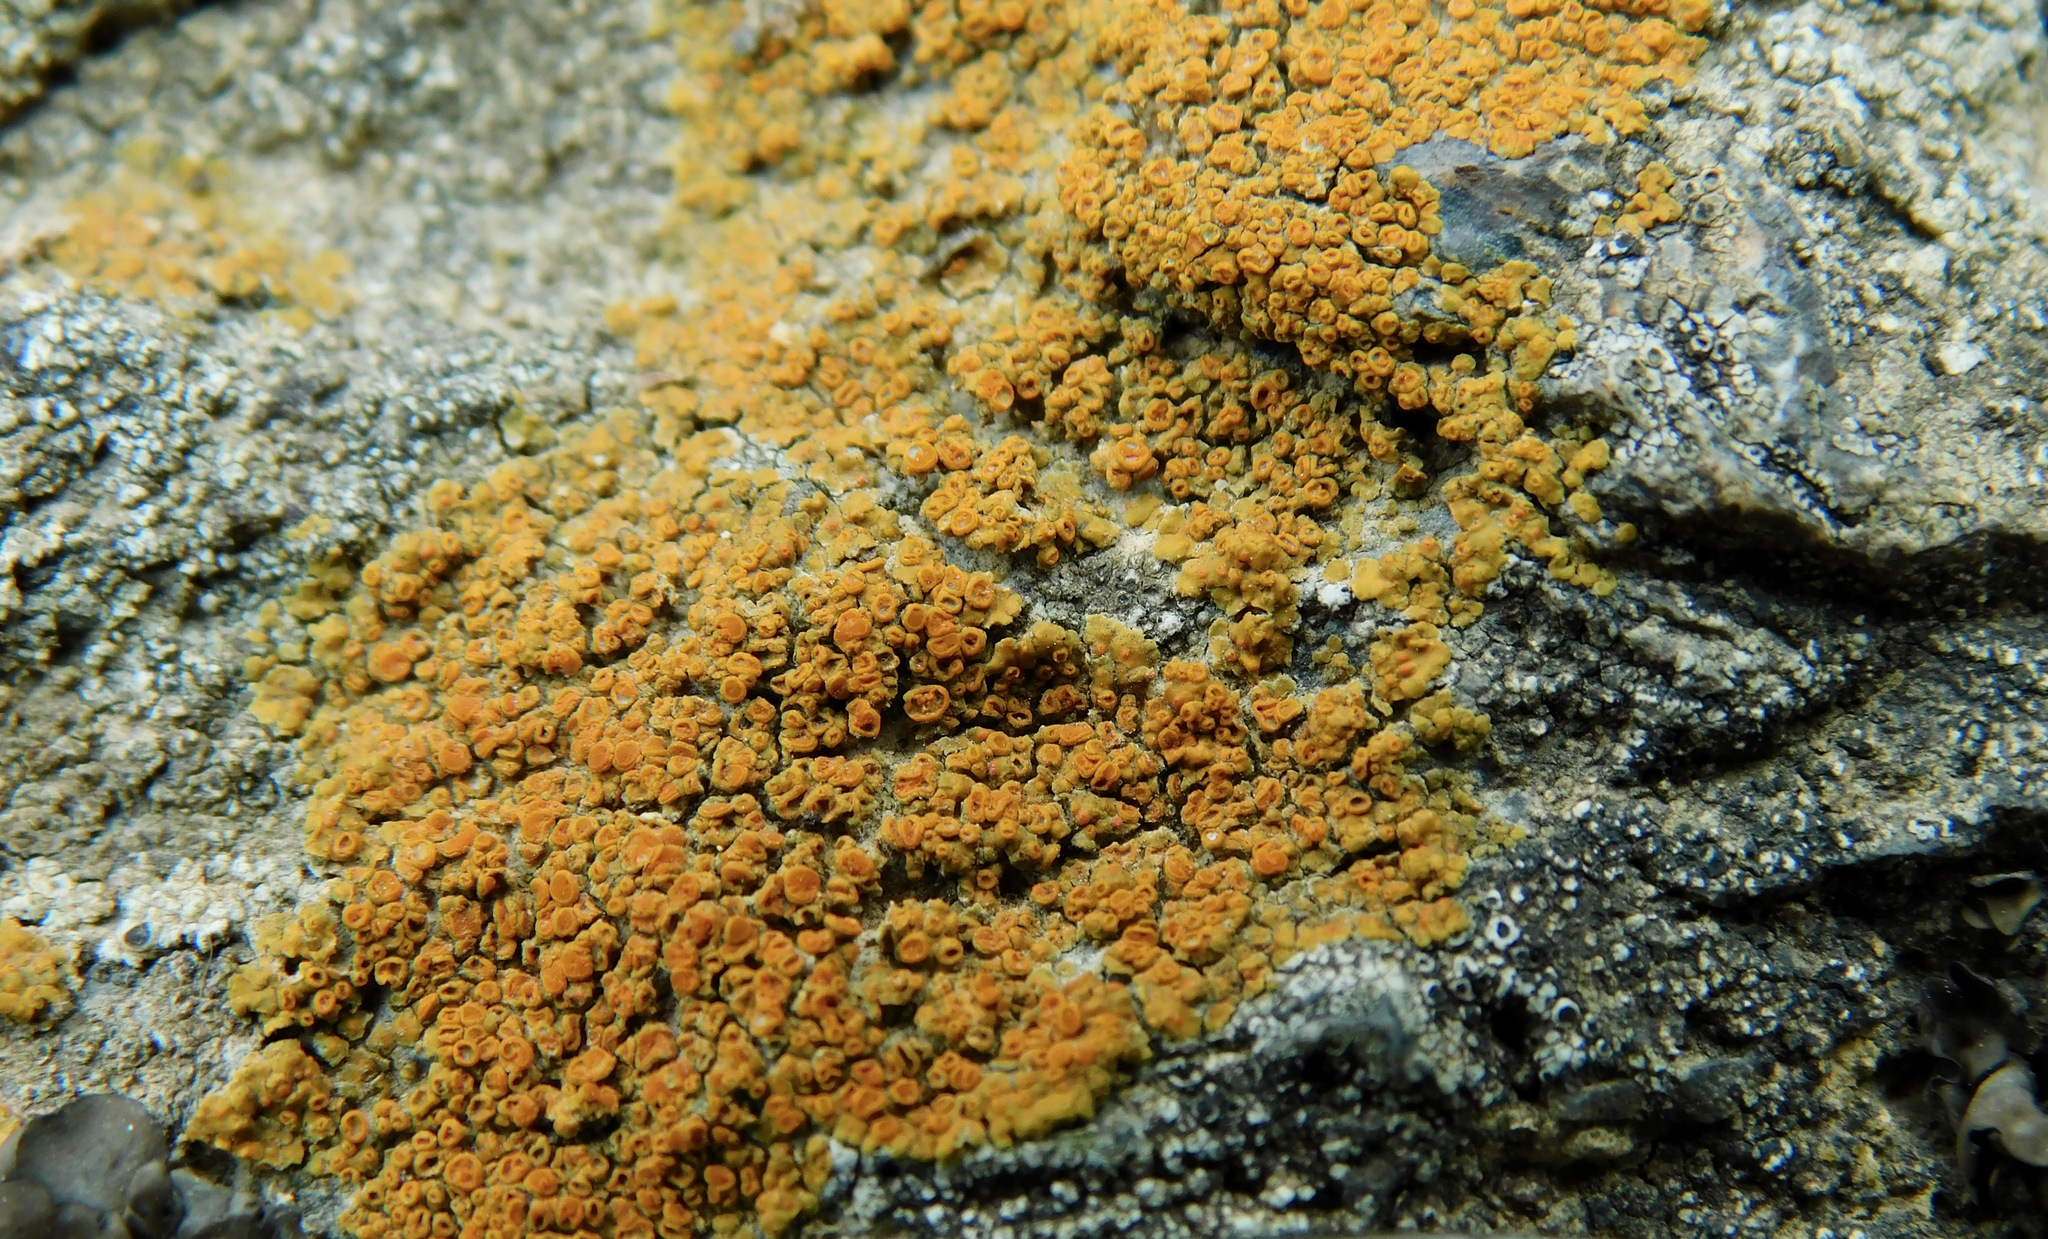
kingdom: Fungi
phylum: Ascomycota
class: Lecanoromycetes
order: Teloschistales
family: Teloschistaceae
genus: Squamulea
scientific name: Squamulea subsoluta
